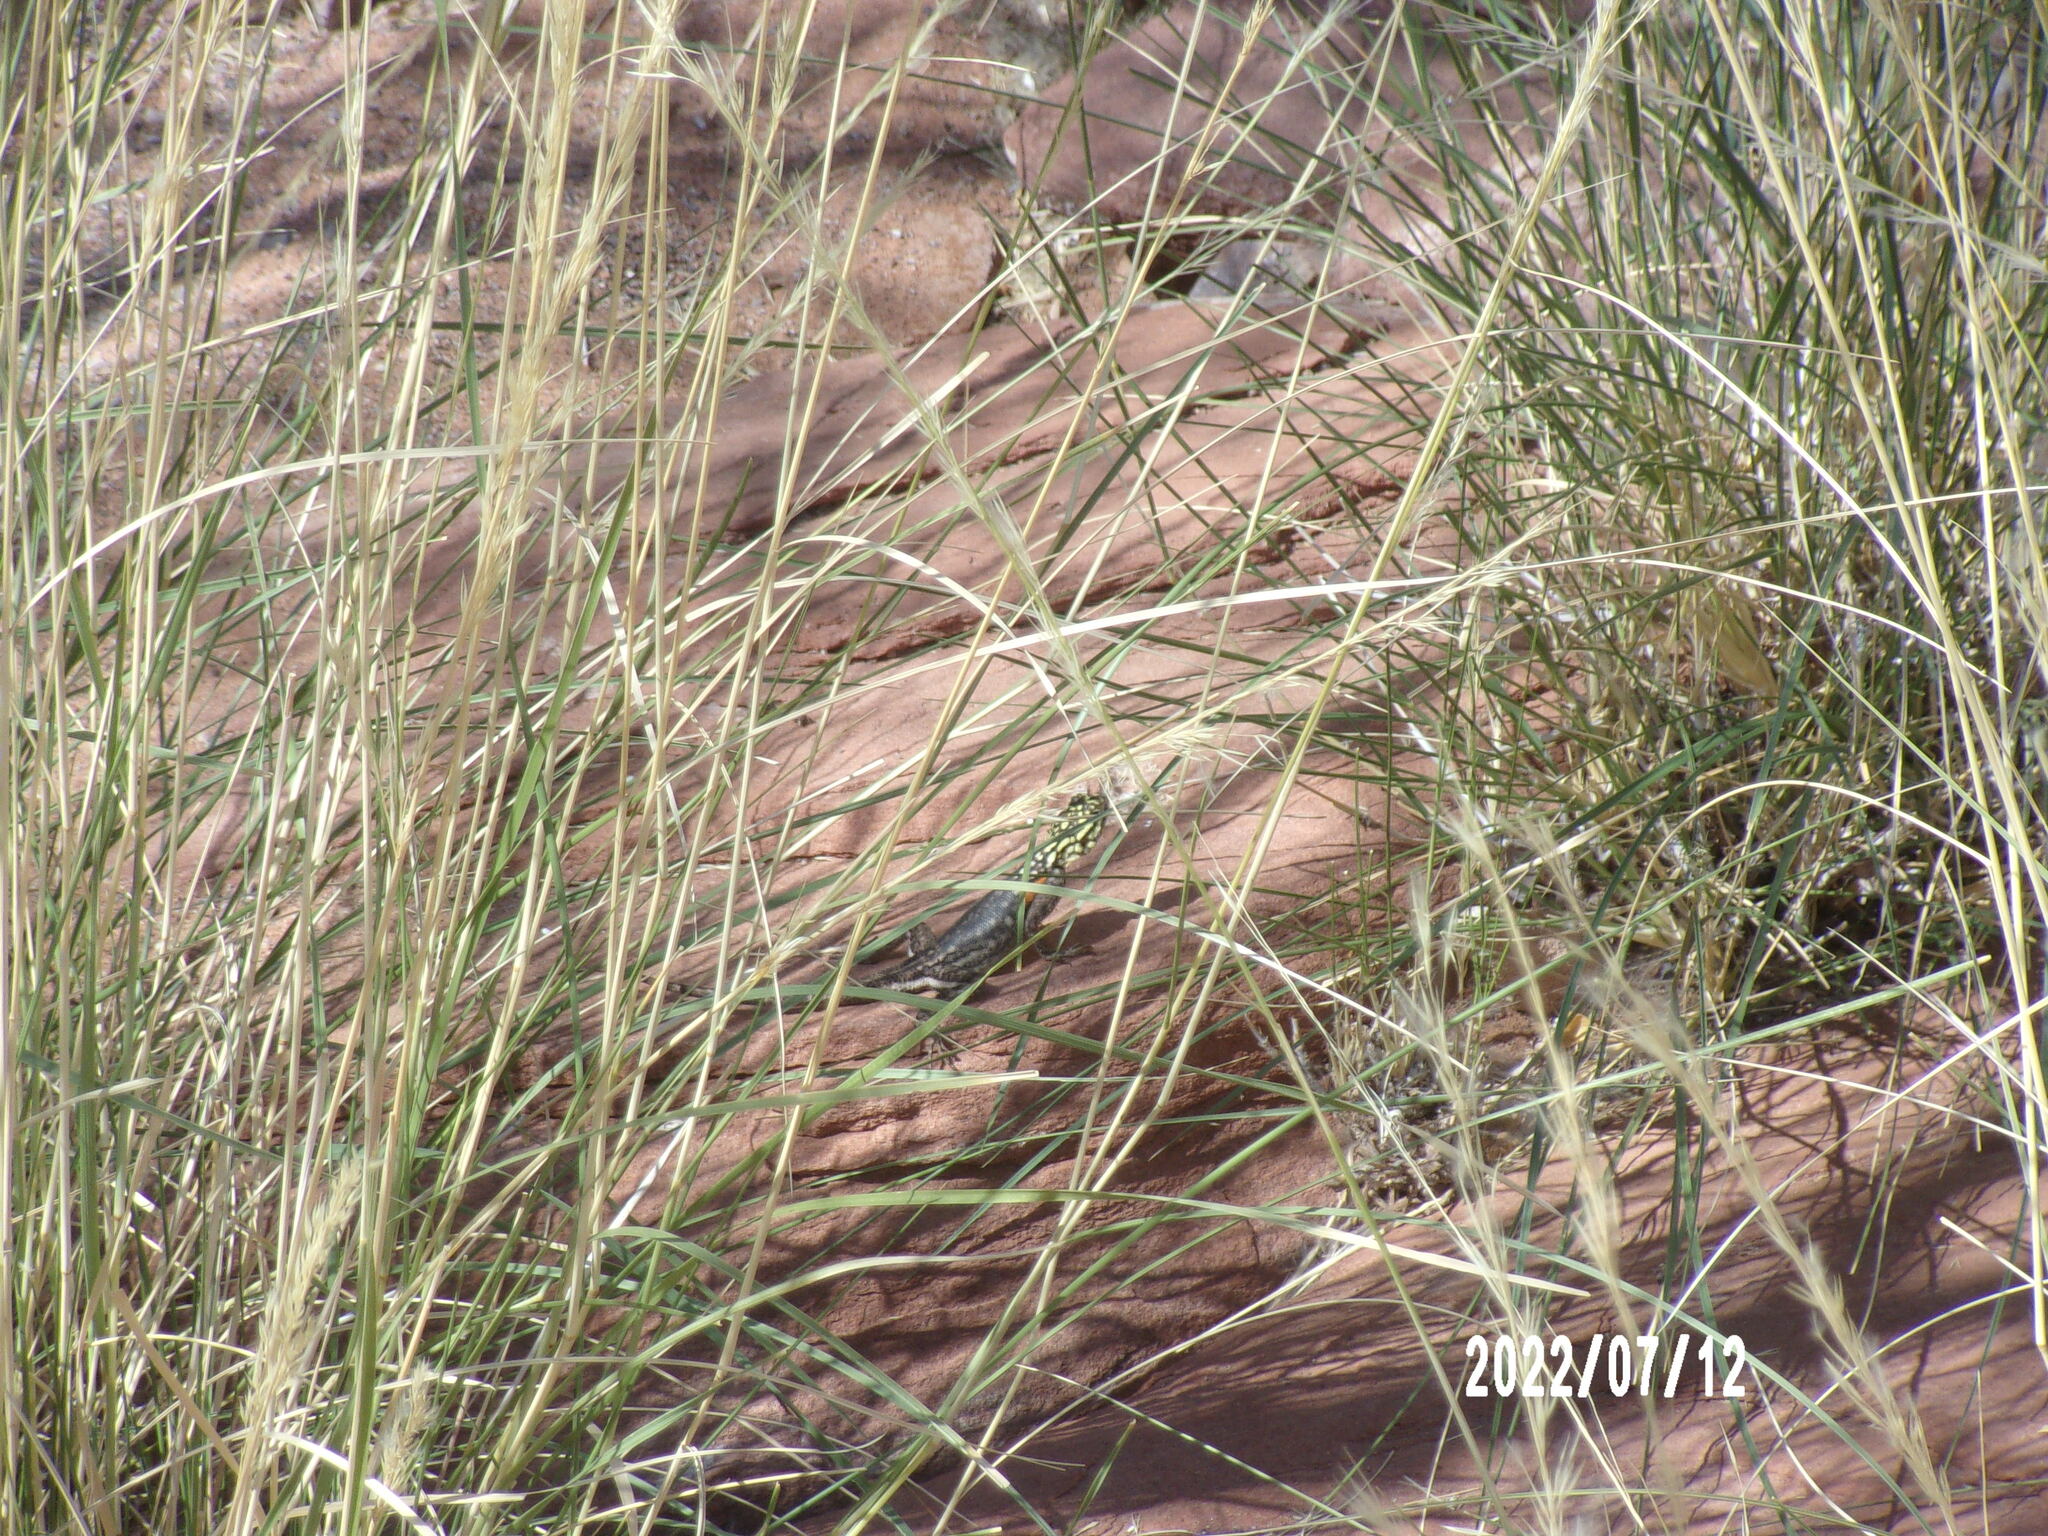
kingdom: Animalia
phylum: Chordata
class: Squamata
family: Agamidae
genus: Agama
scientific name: Agama planiceps
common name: Namib rock agama
